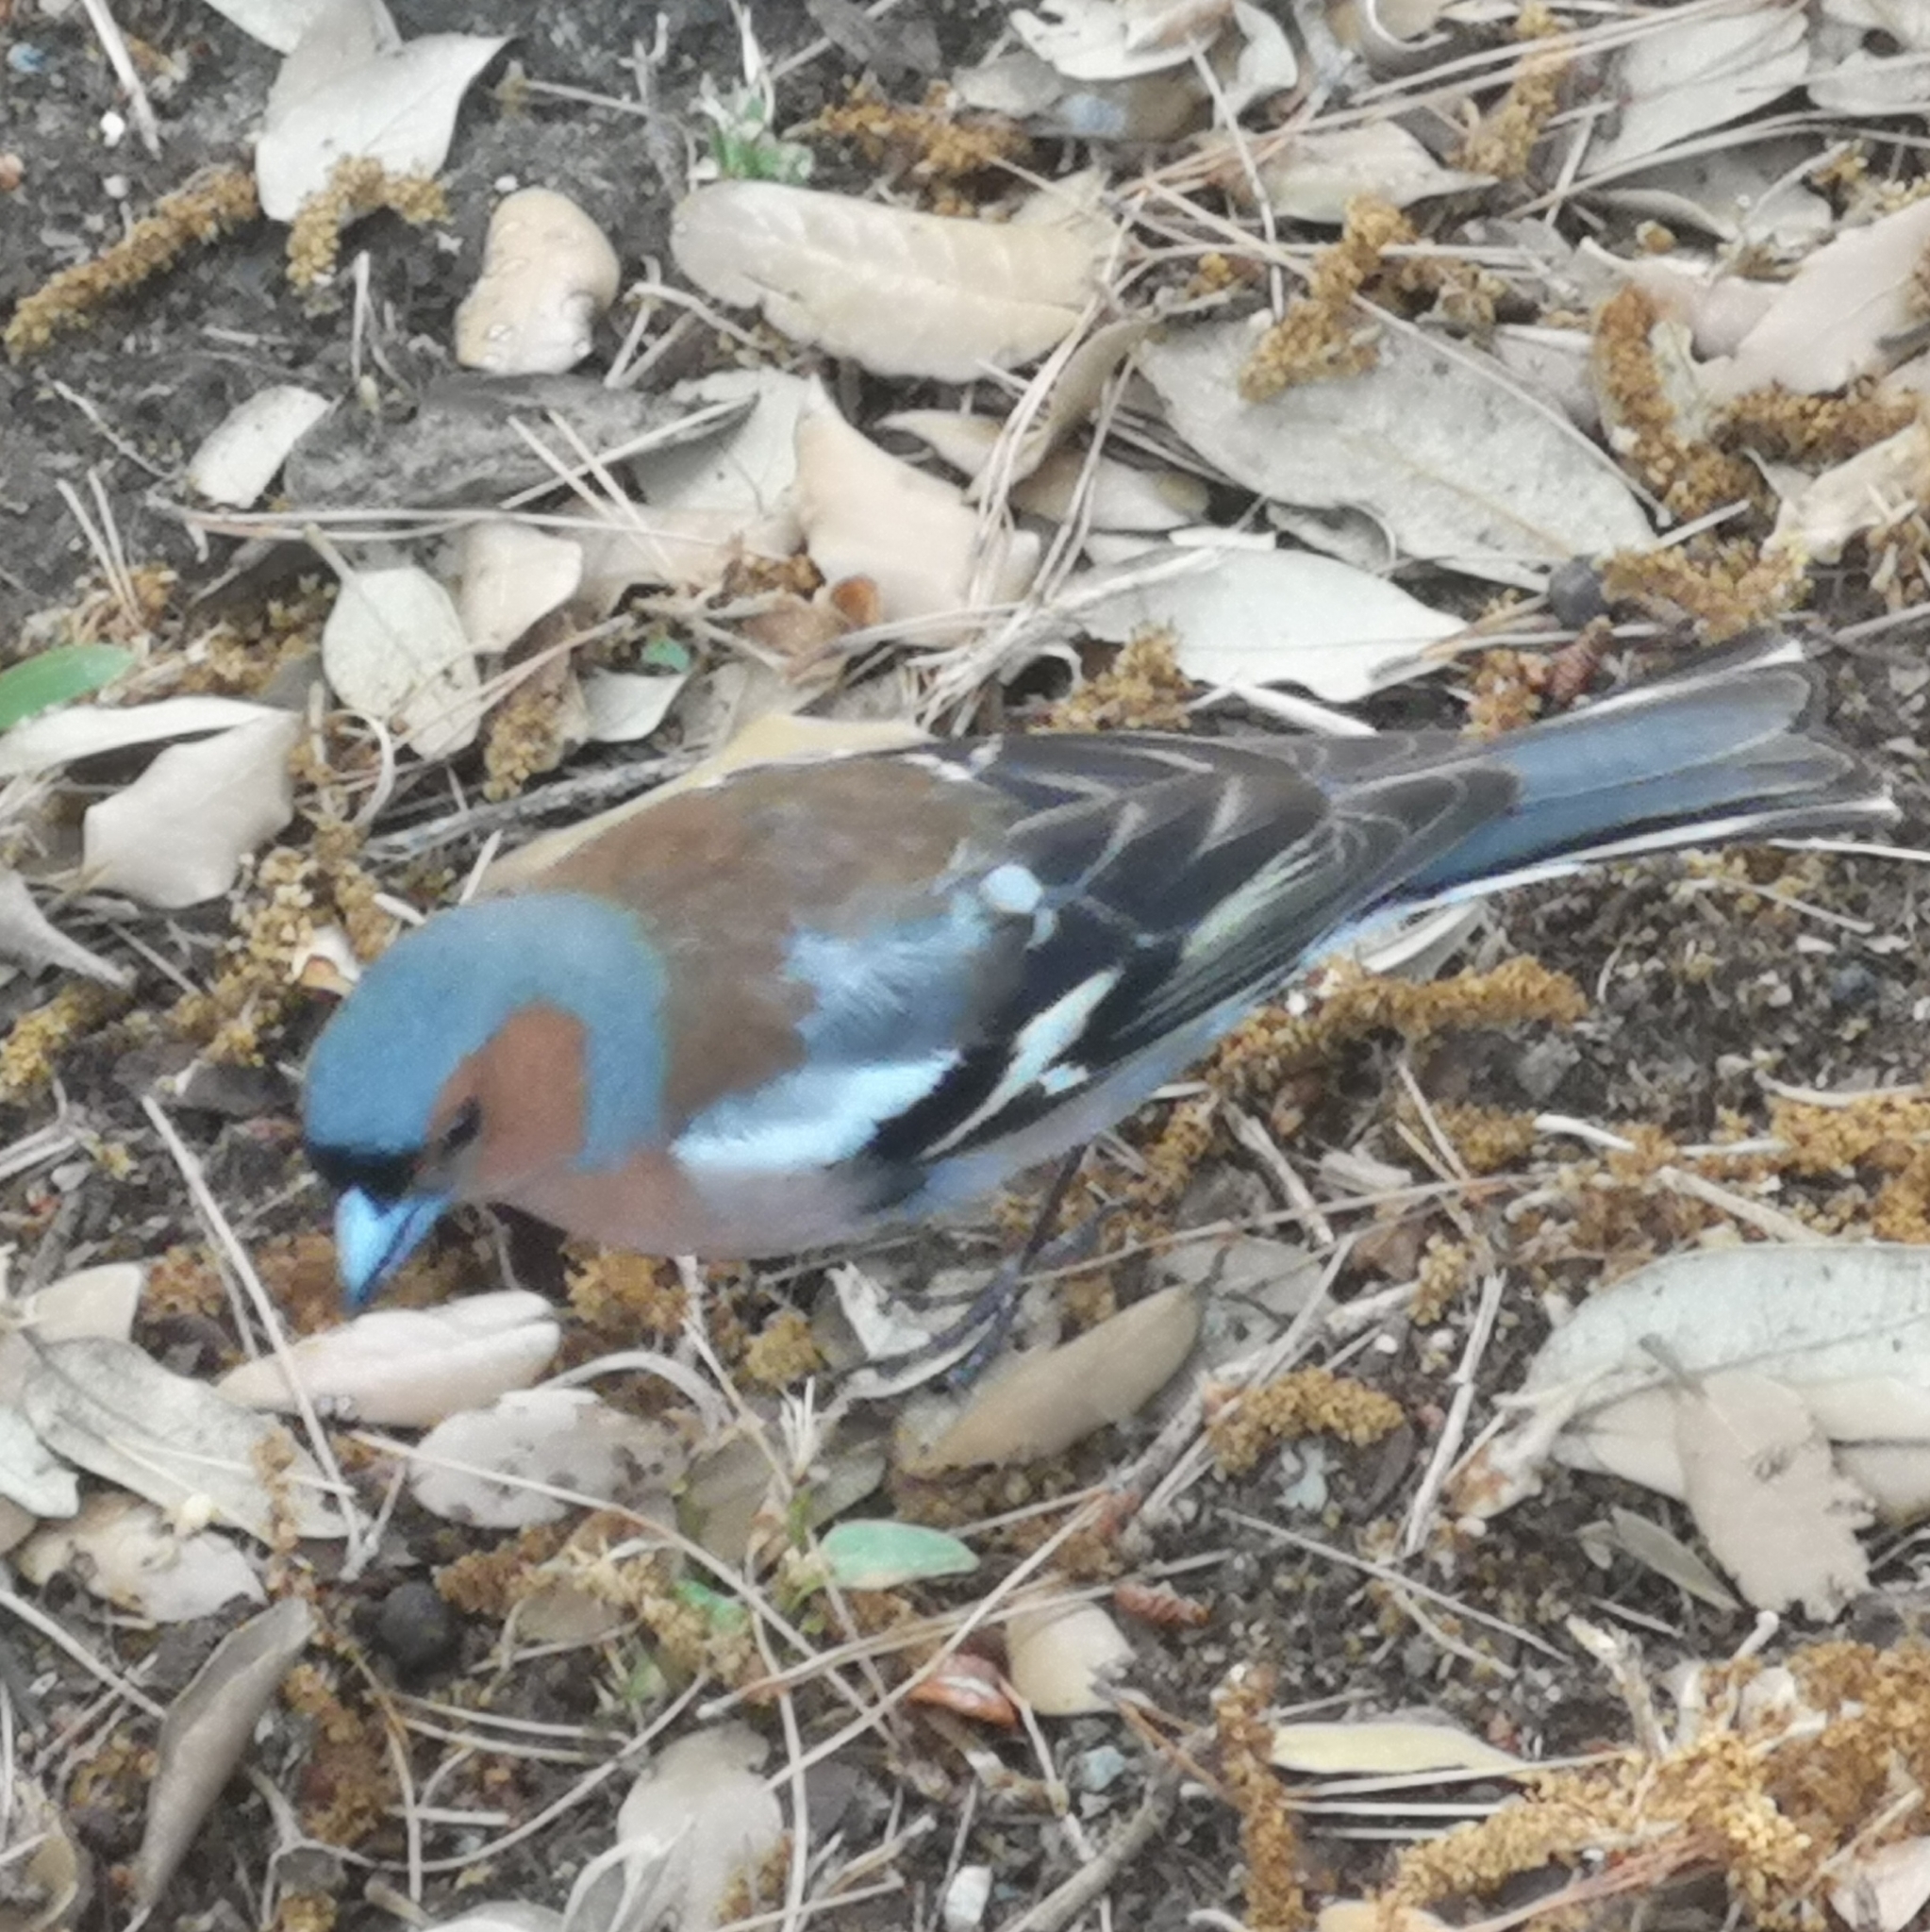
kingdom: Animalia
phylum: Chordata
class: Aves
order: Passeriformes
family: Fringillidae
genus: Fringilla
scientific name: Fringilla coelebs
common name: Common chaffinch
